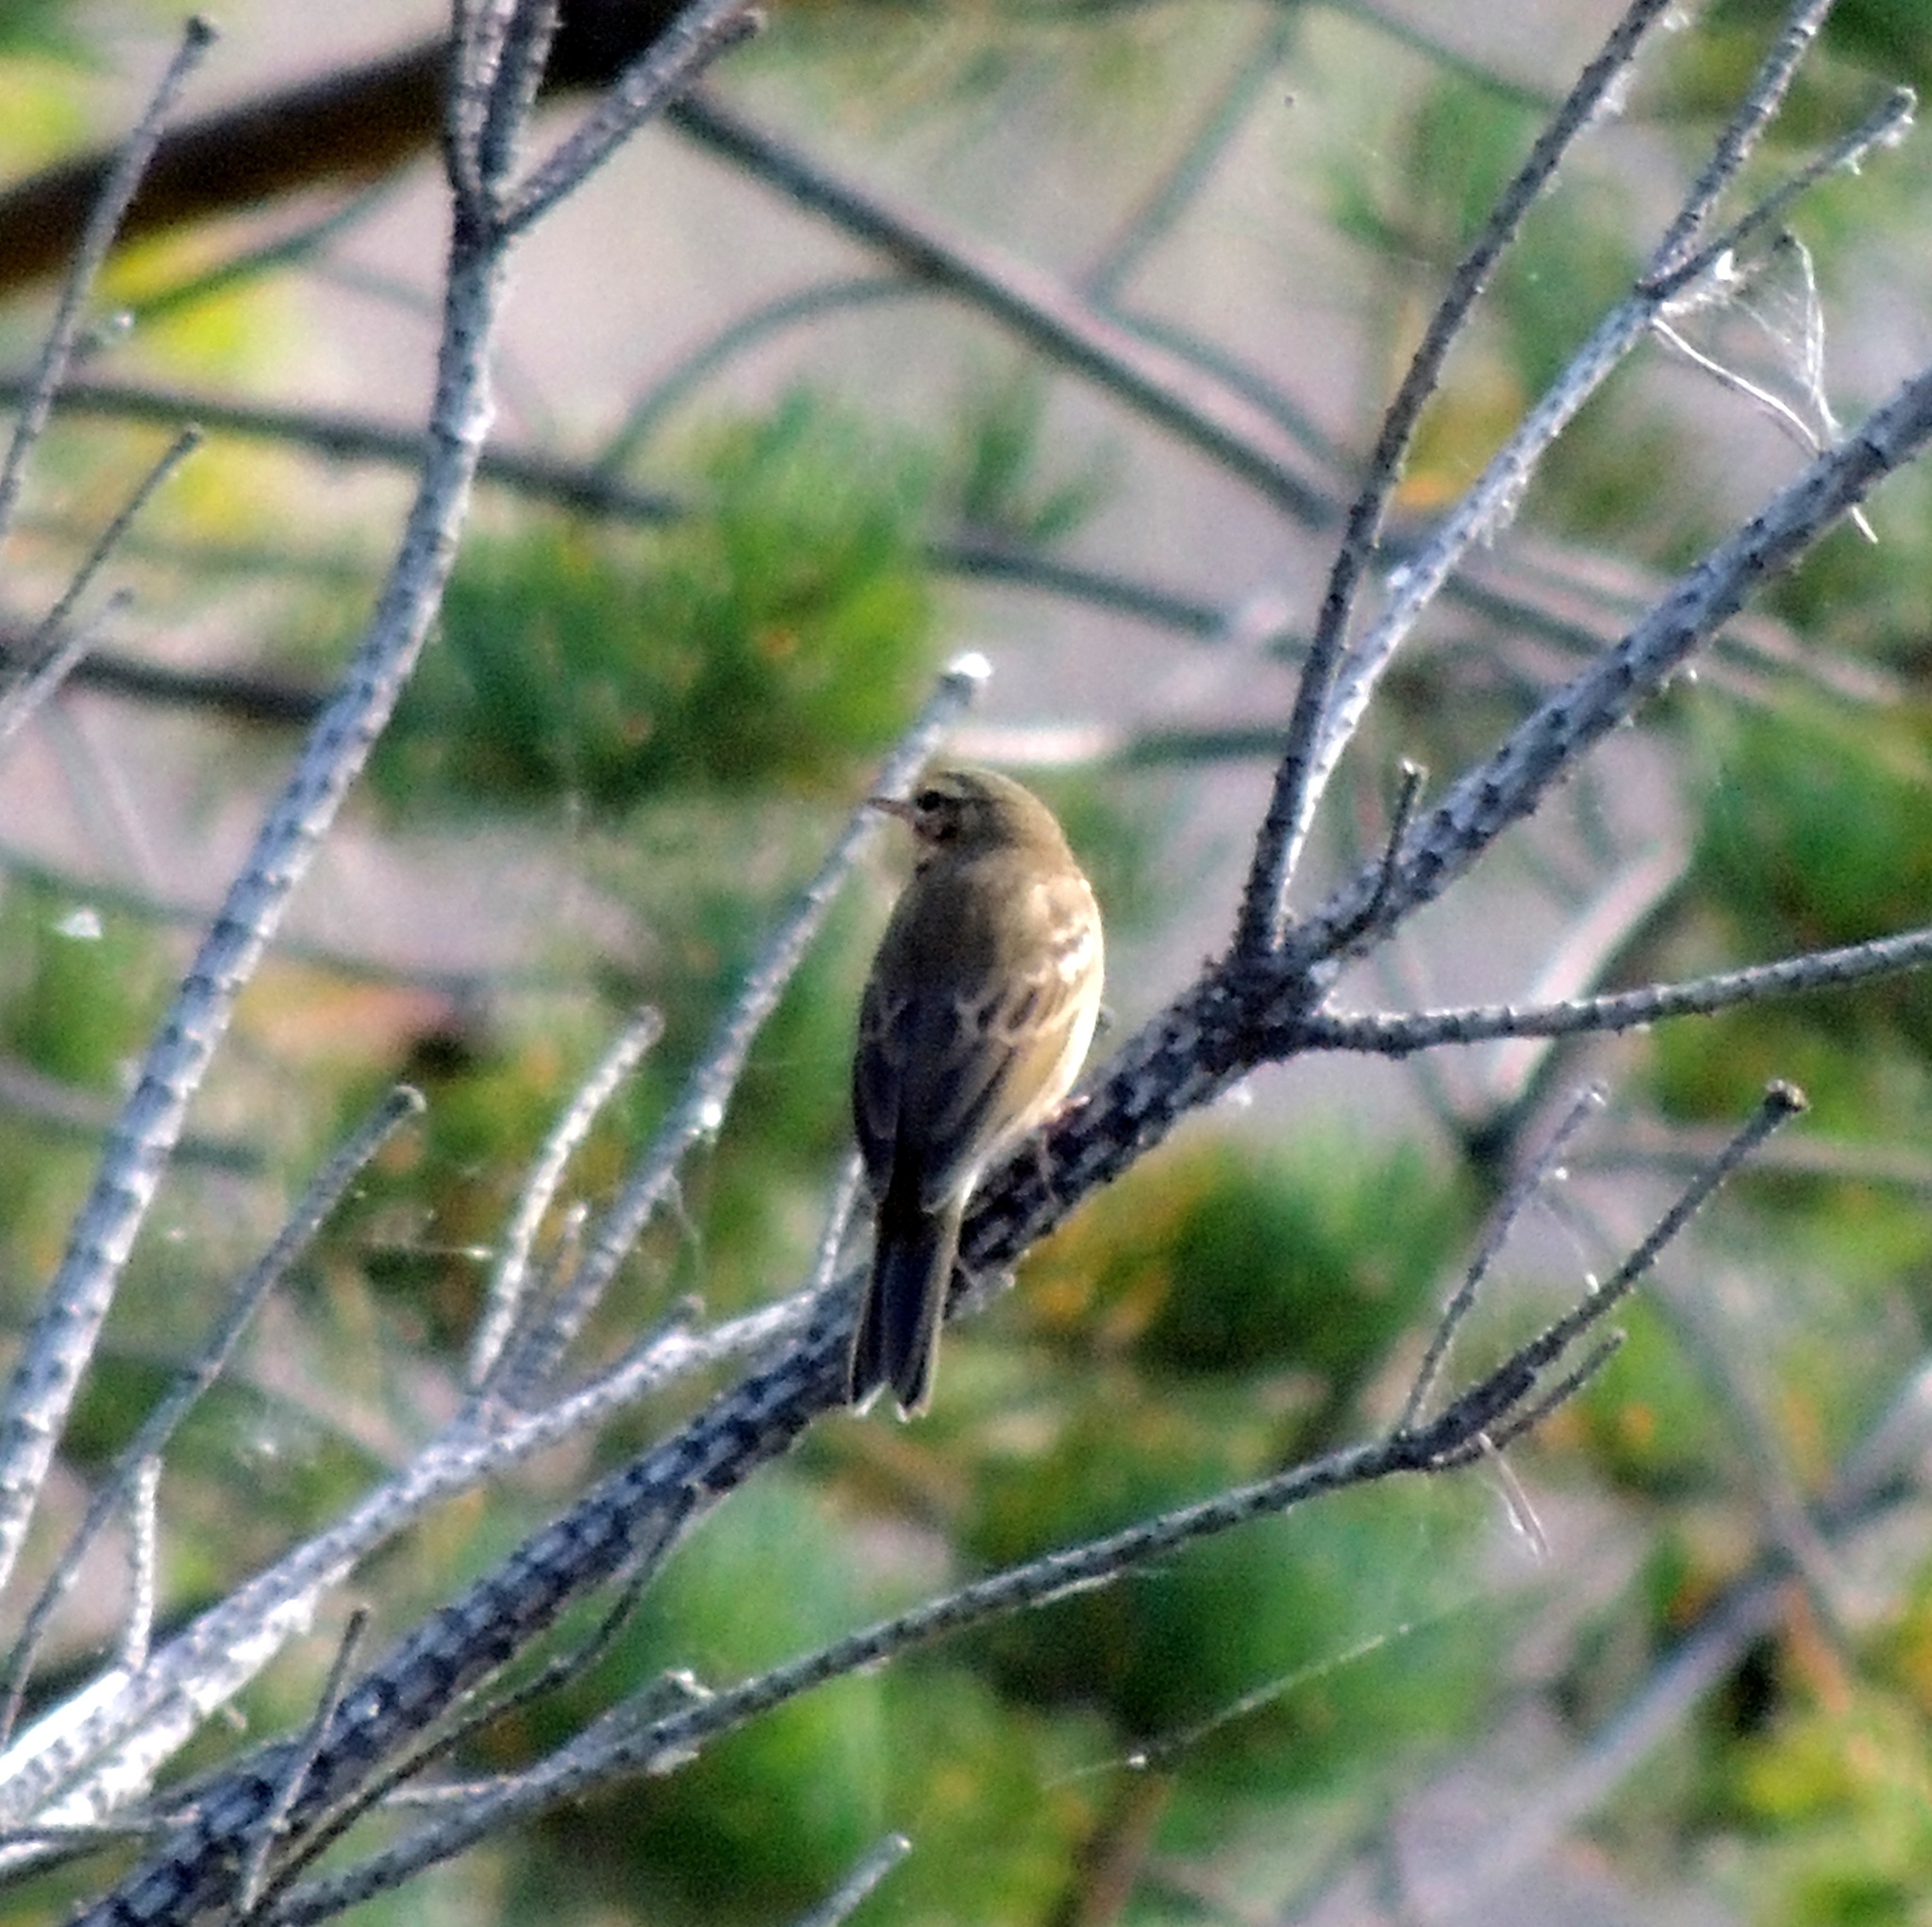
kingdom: Animalia
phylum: Chordata
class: Aves
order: Passeriformes
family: Motacillidae
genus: Anthus
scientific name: Anthus hodgsoni
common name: Olive-backed pipit
